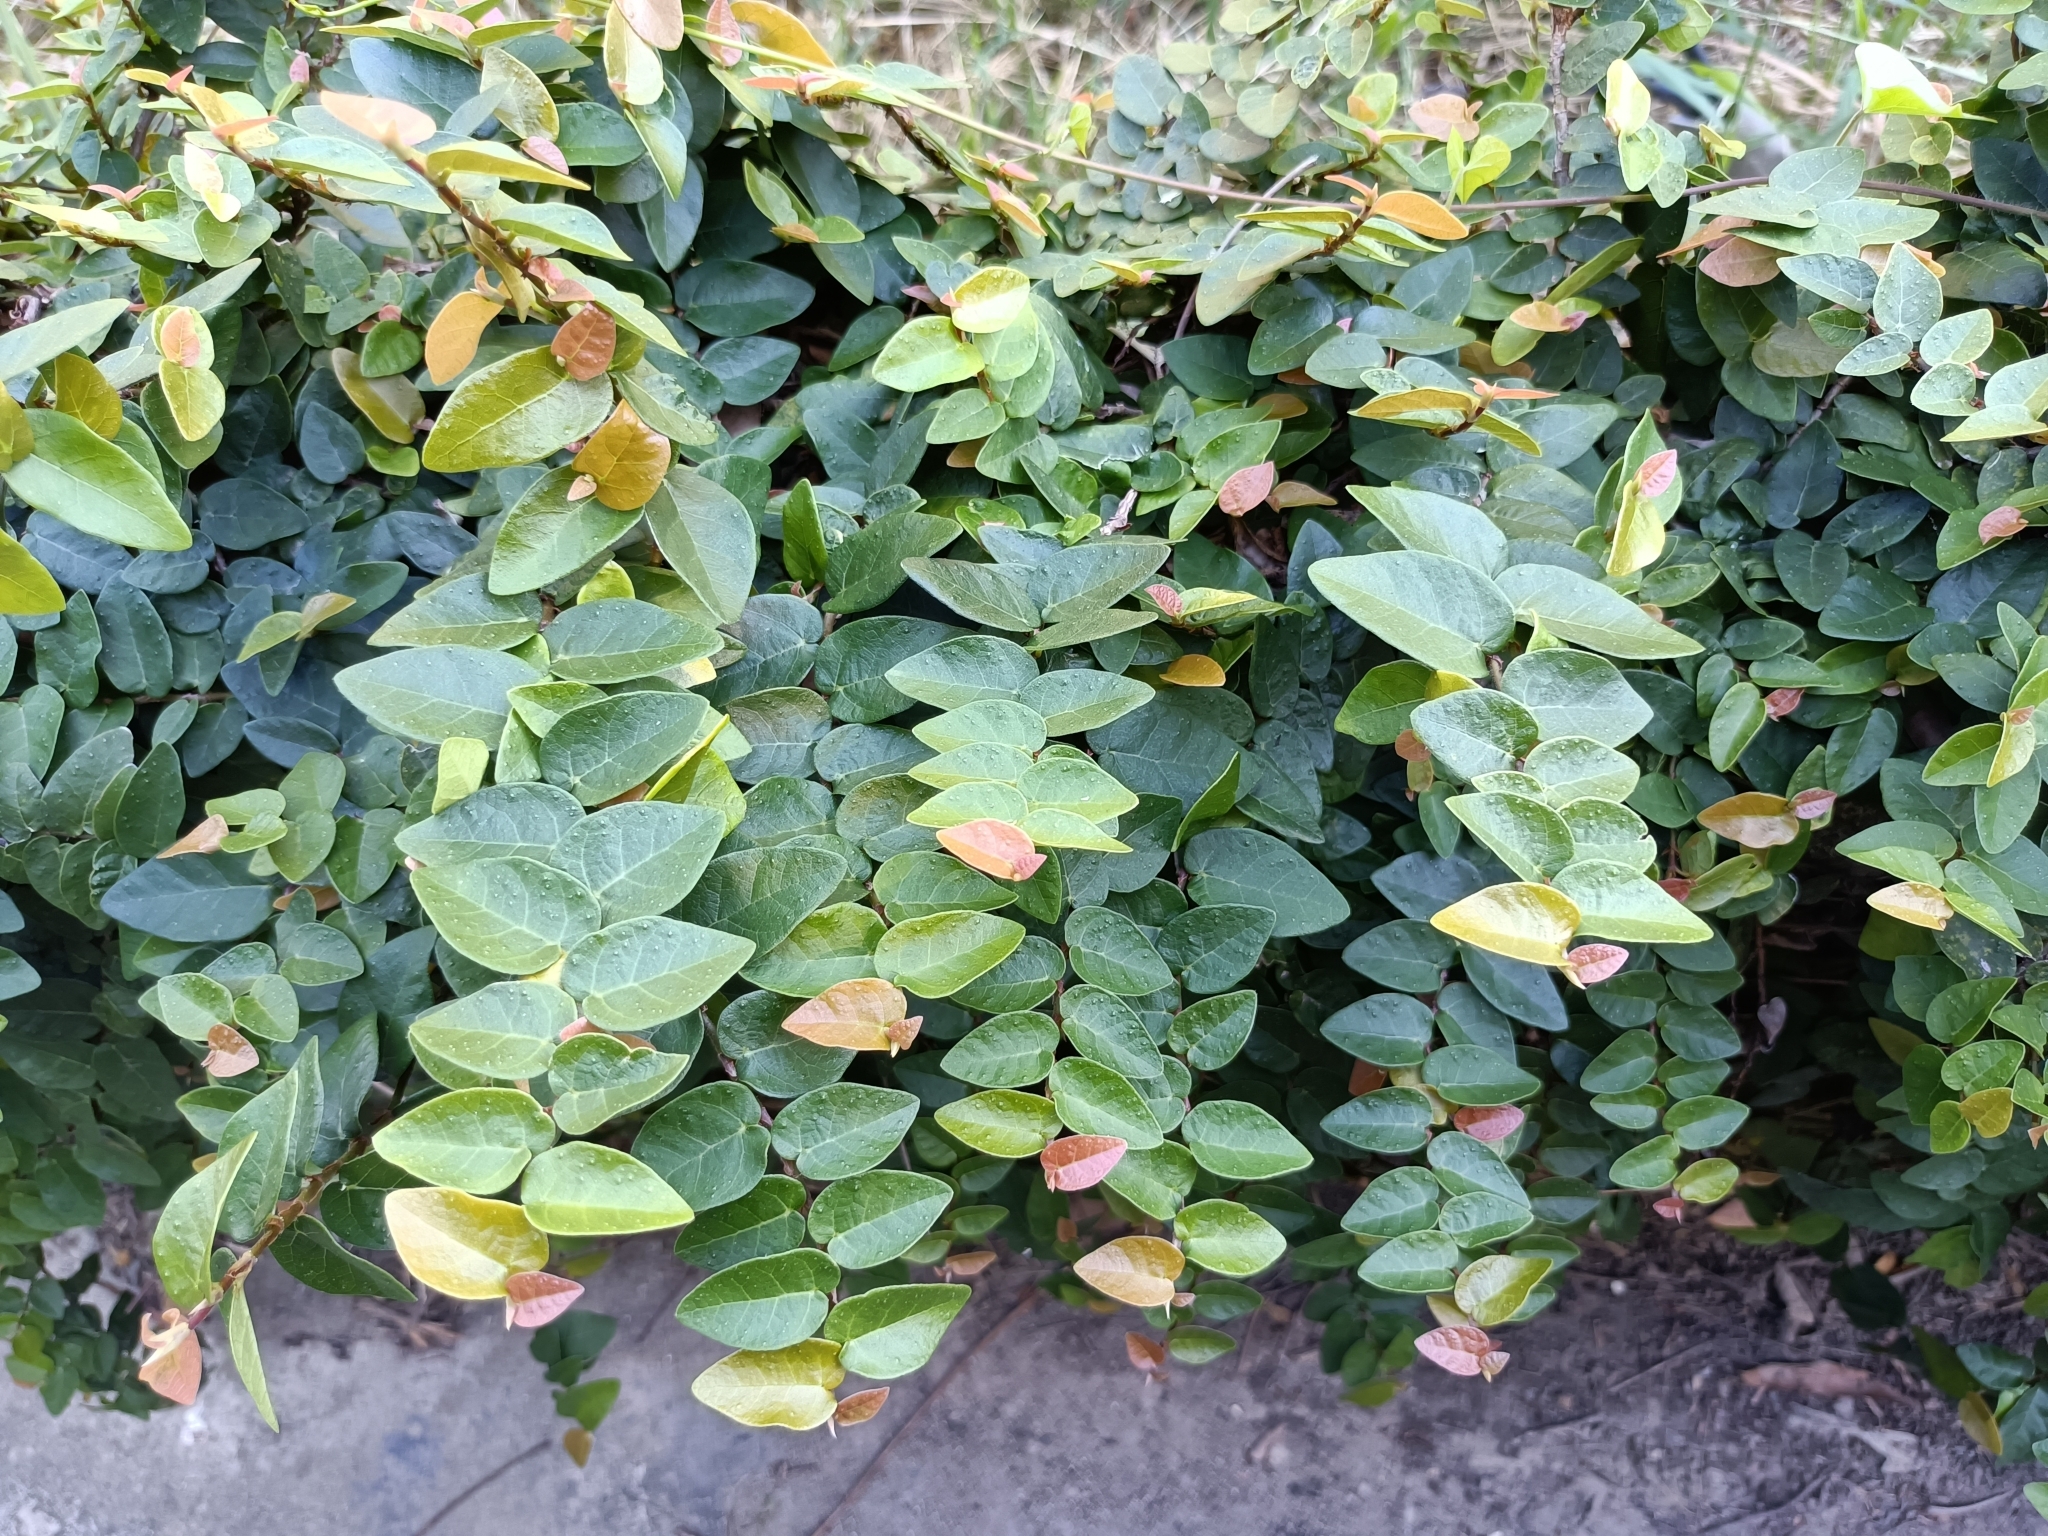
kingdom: Plantae
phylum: Tracheophyta
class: Magnoliopsida
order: Rosales
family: Moraceae
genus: Ficus
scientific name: Ficus pumila
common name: Climbingfig
